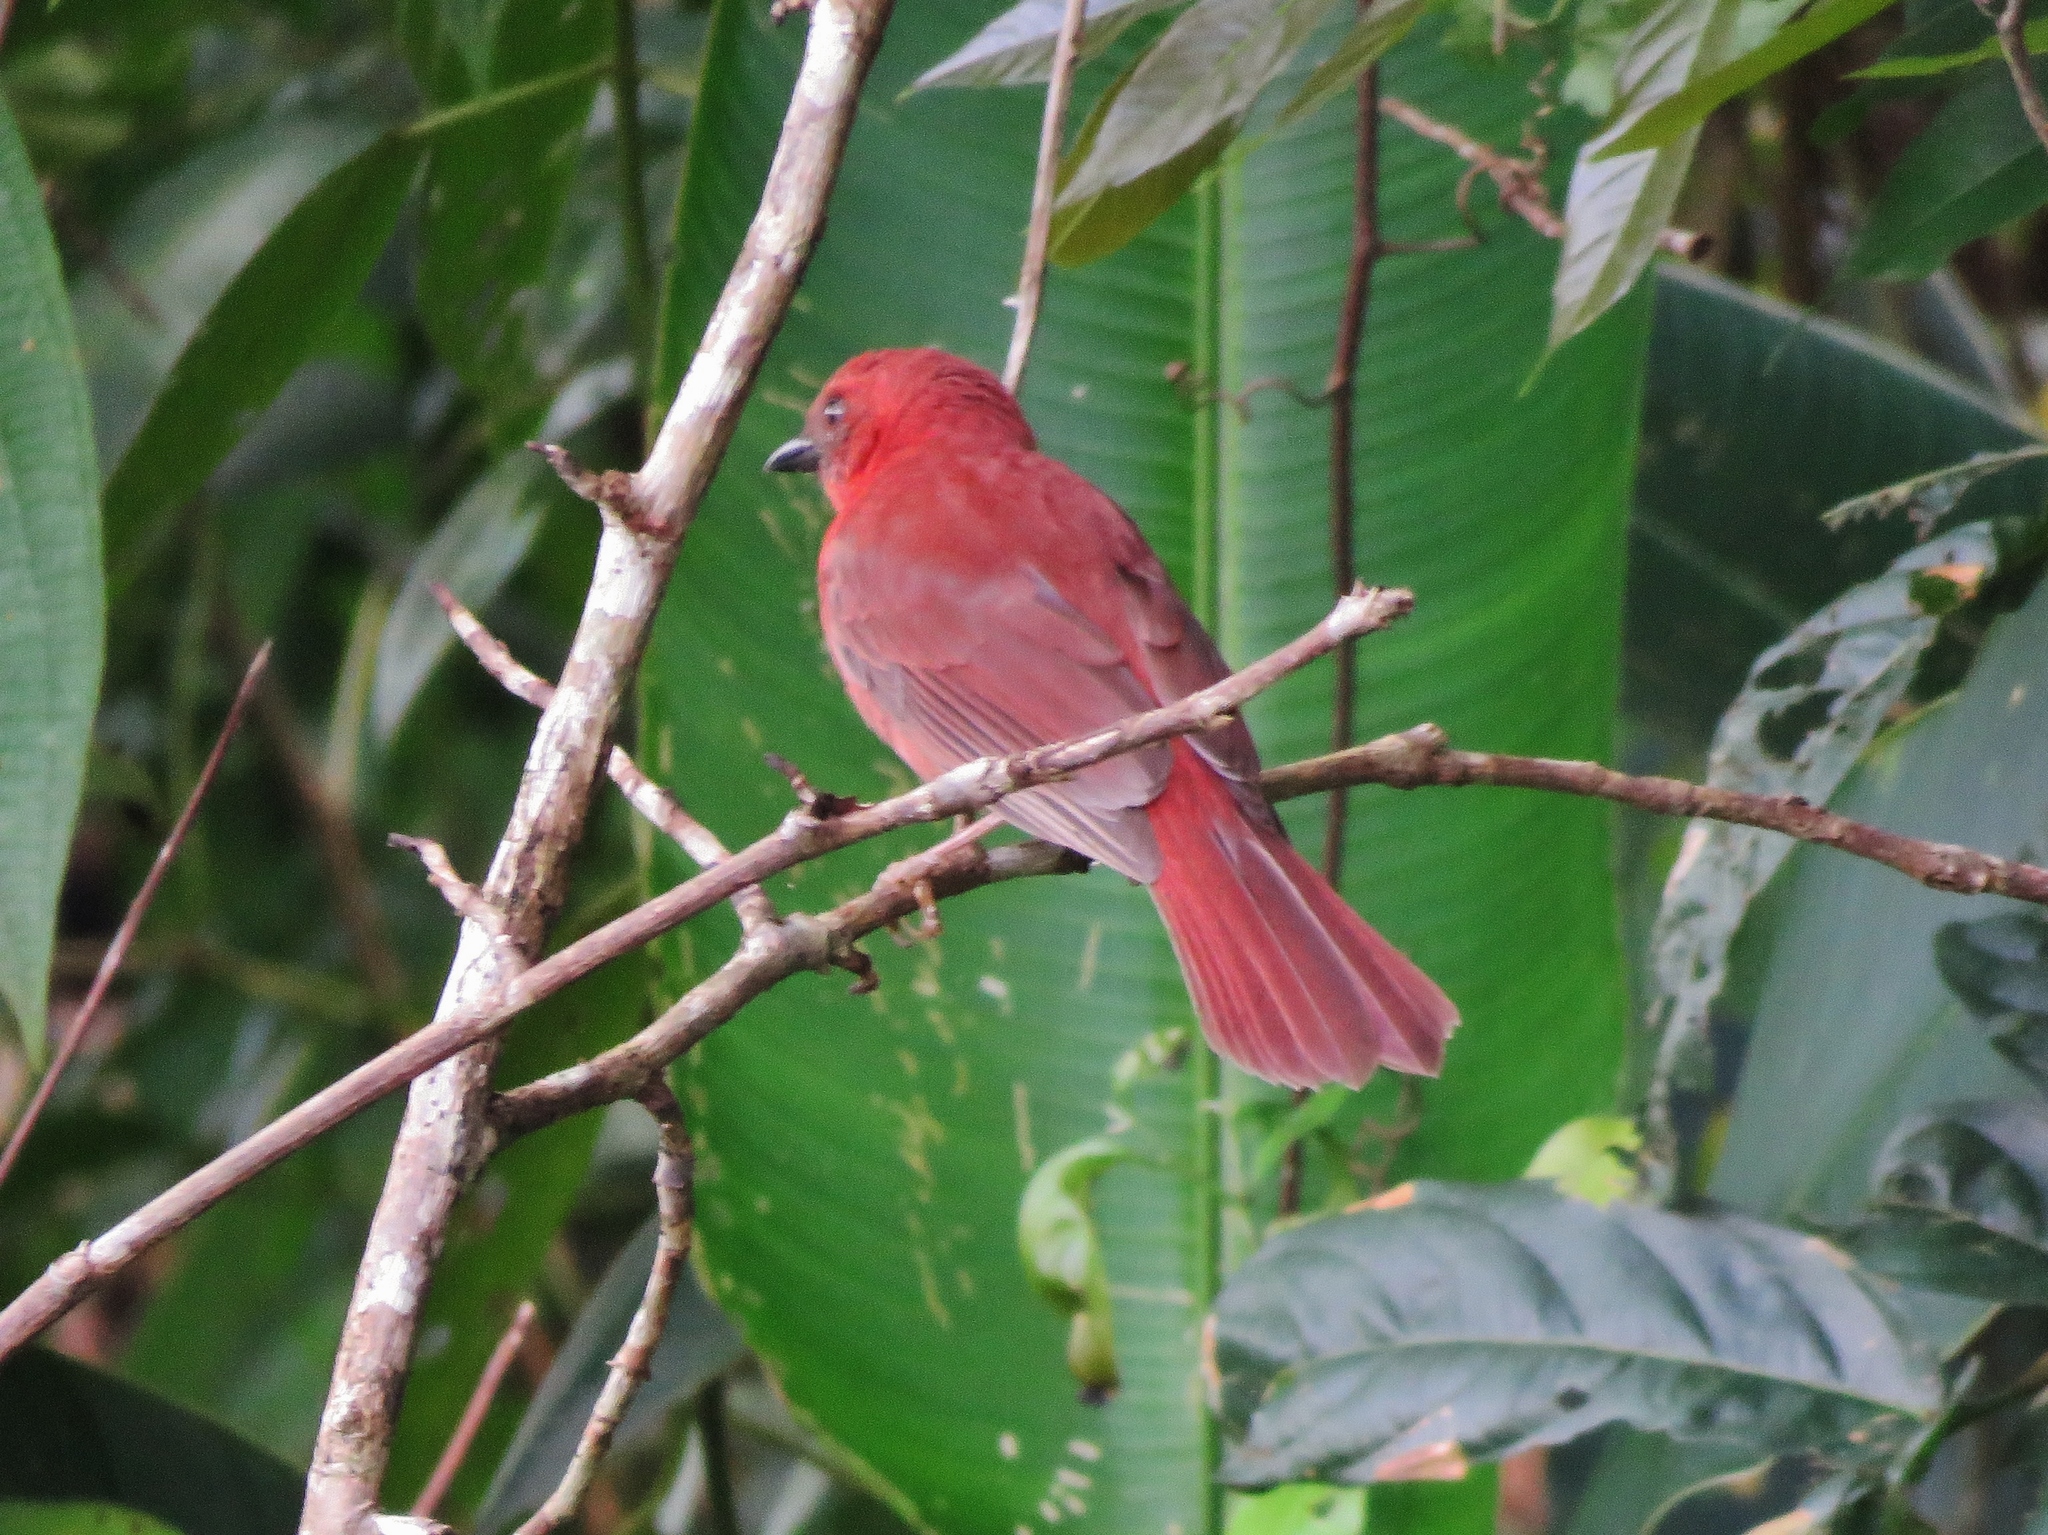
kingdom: Animalia
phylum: Chordata
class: Aves
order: Passeriformes
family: Cardinalidae
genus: Habia
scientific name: Habia fuscicauda
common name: Red-throated ant-tanager
